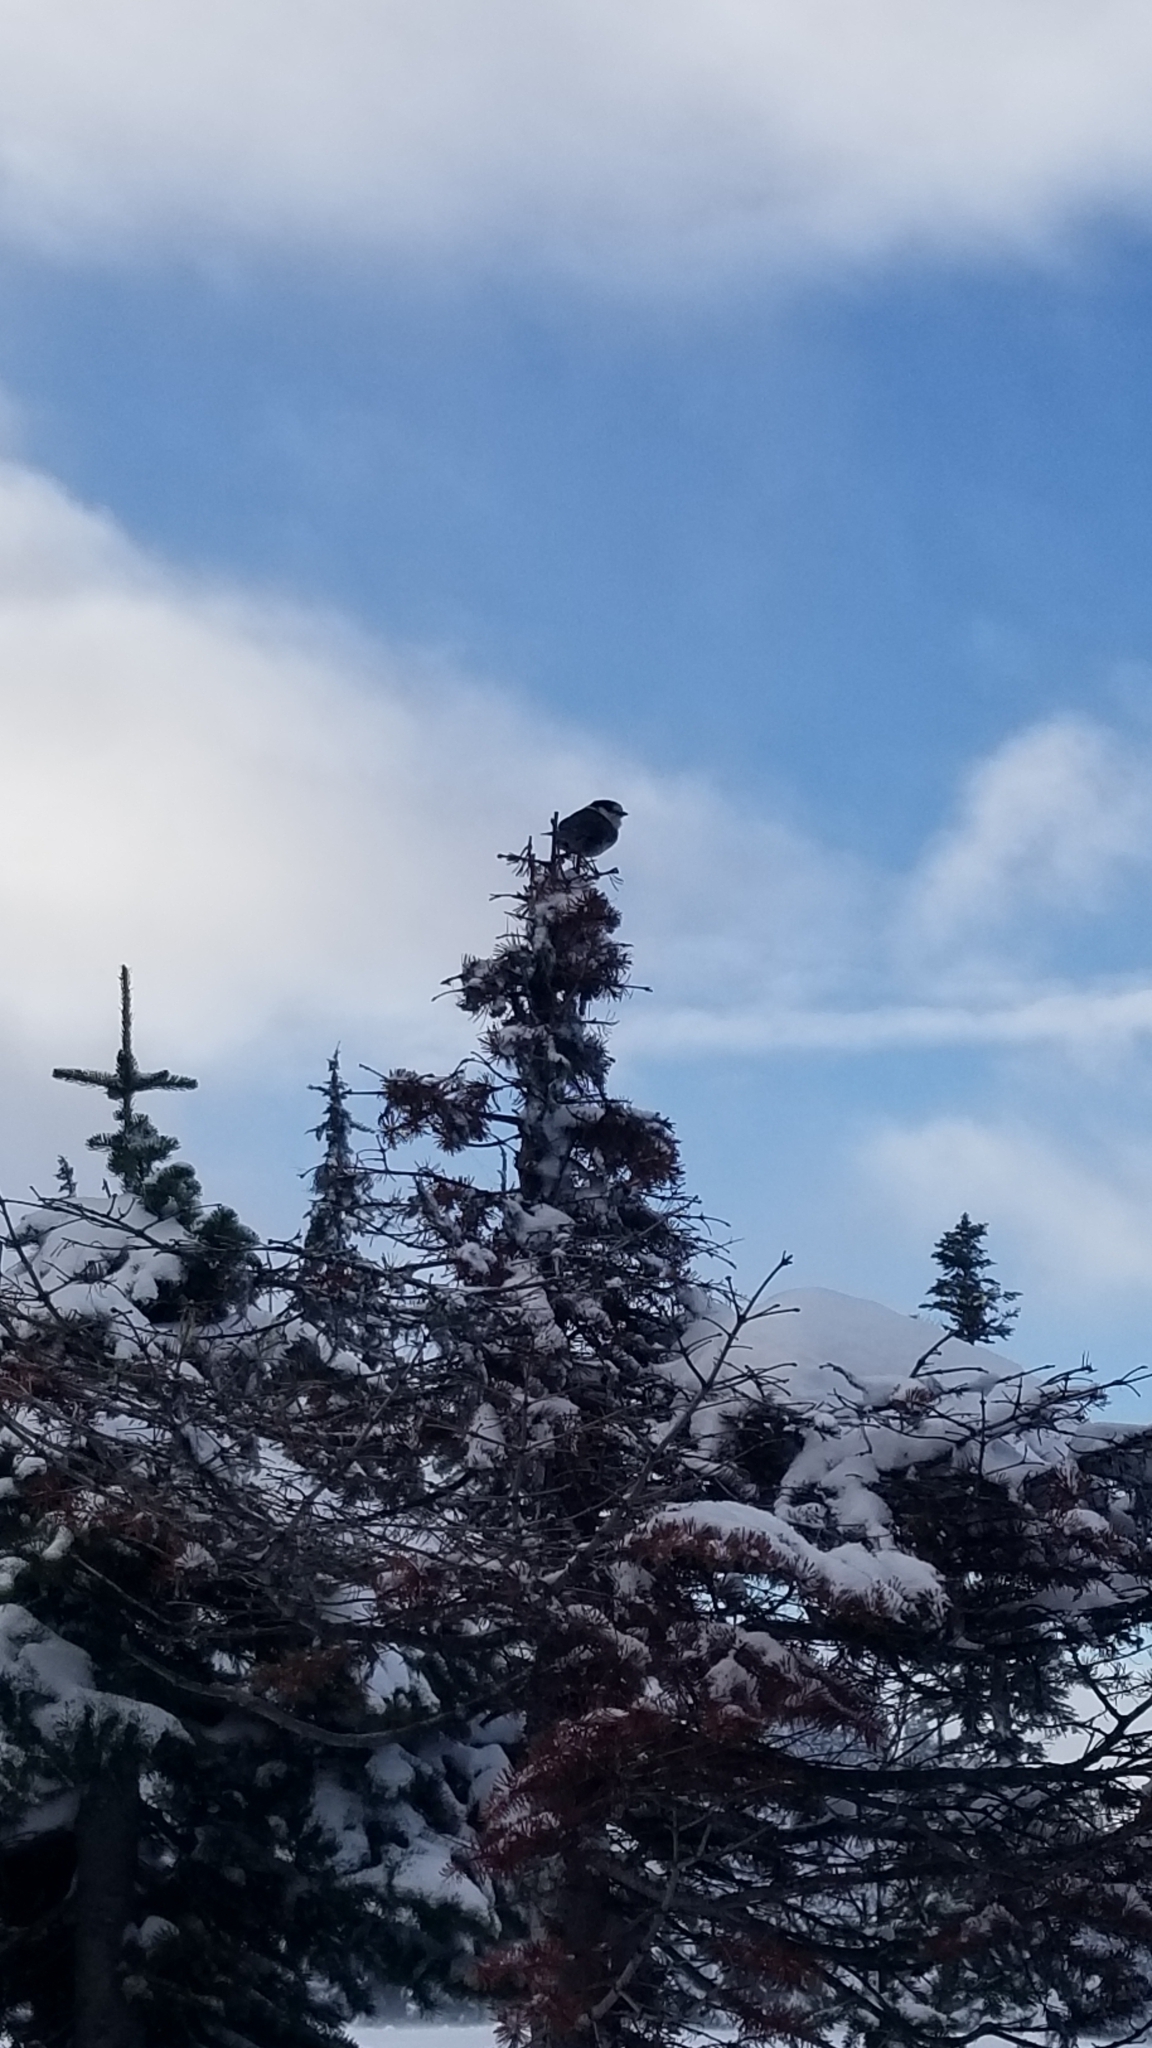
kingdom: Animalia
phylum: Chordata
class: Aves
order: Passeriformes
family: Corvidae
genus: Perisoreus
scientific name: Perisoreus canadensis
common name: Gray jay
